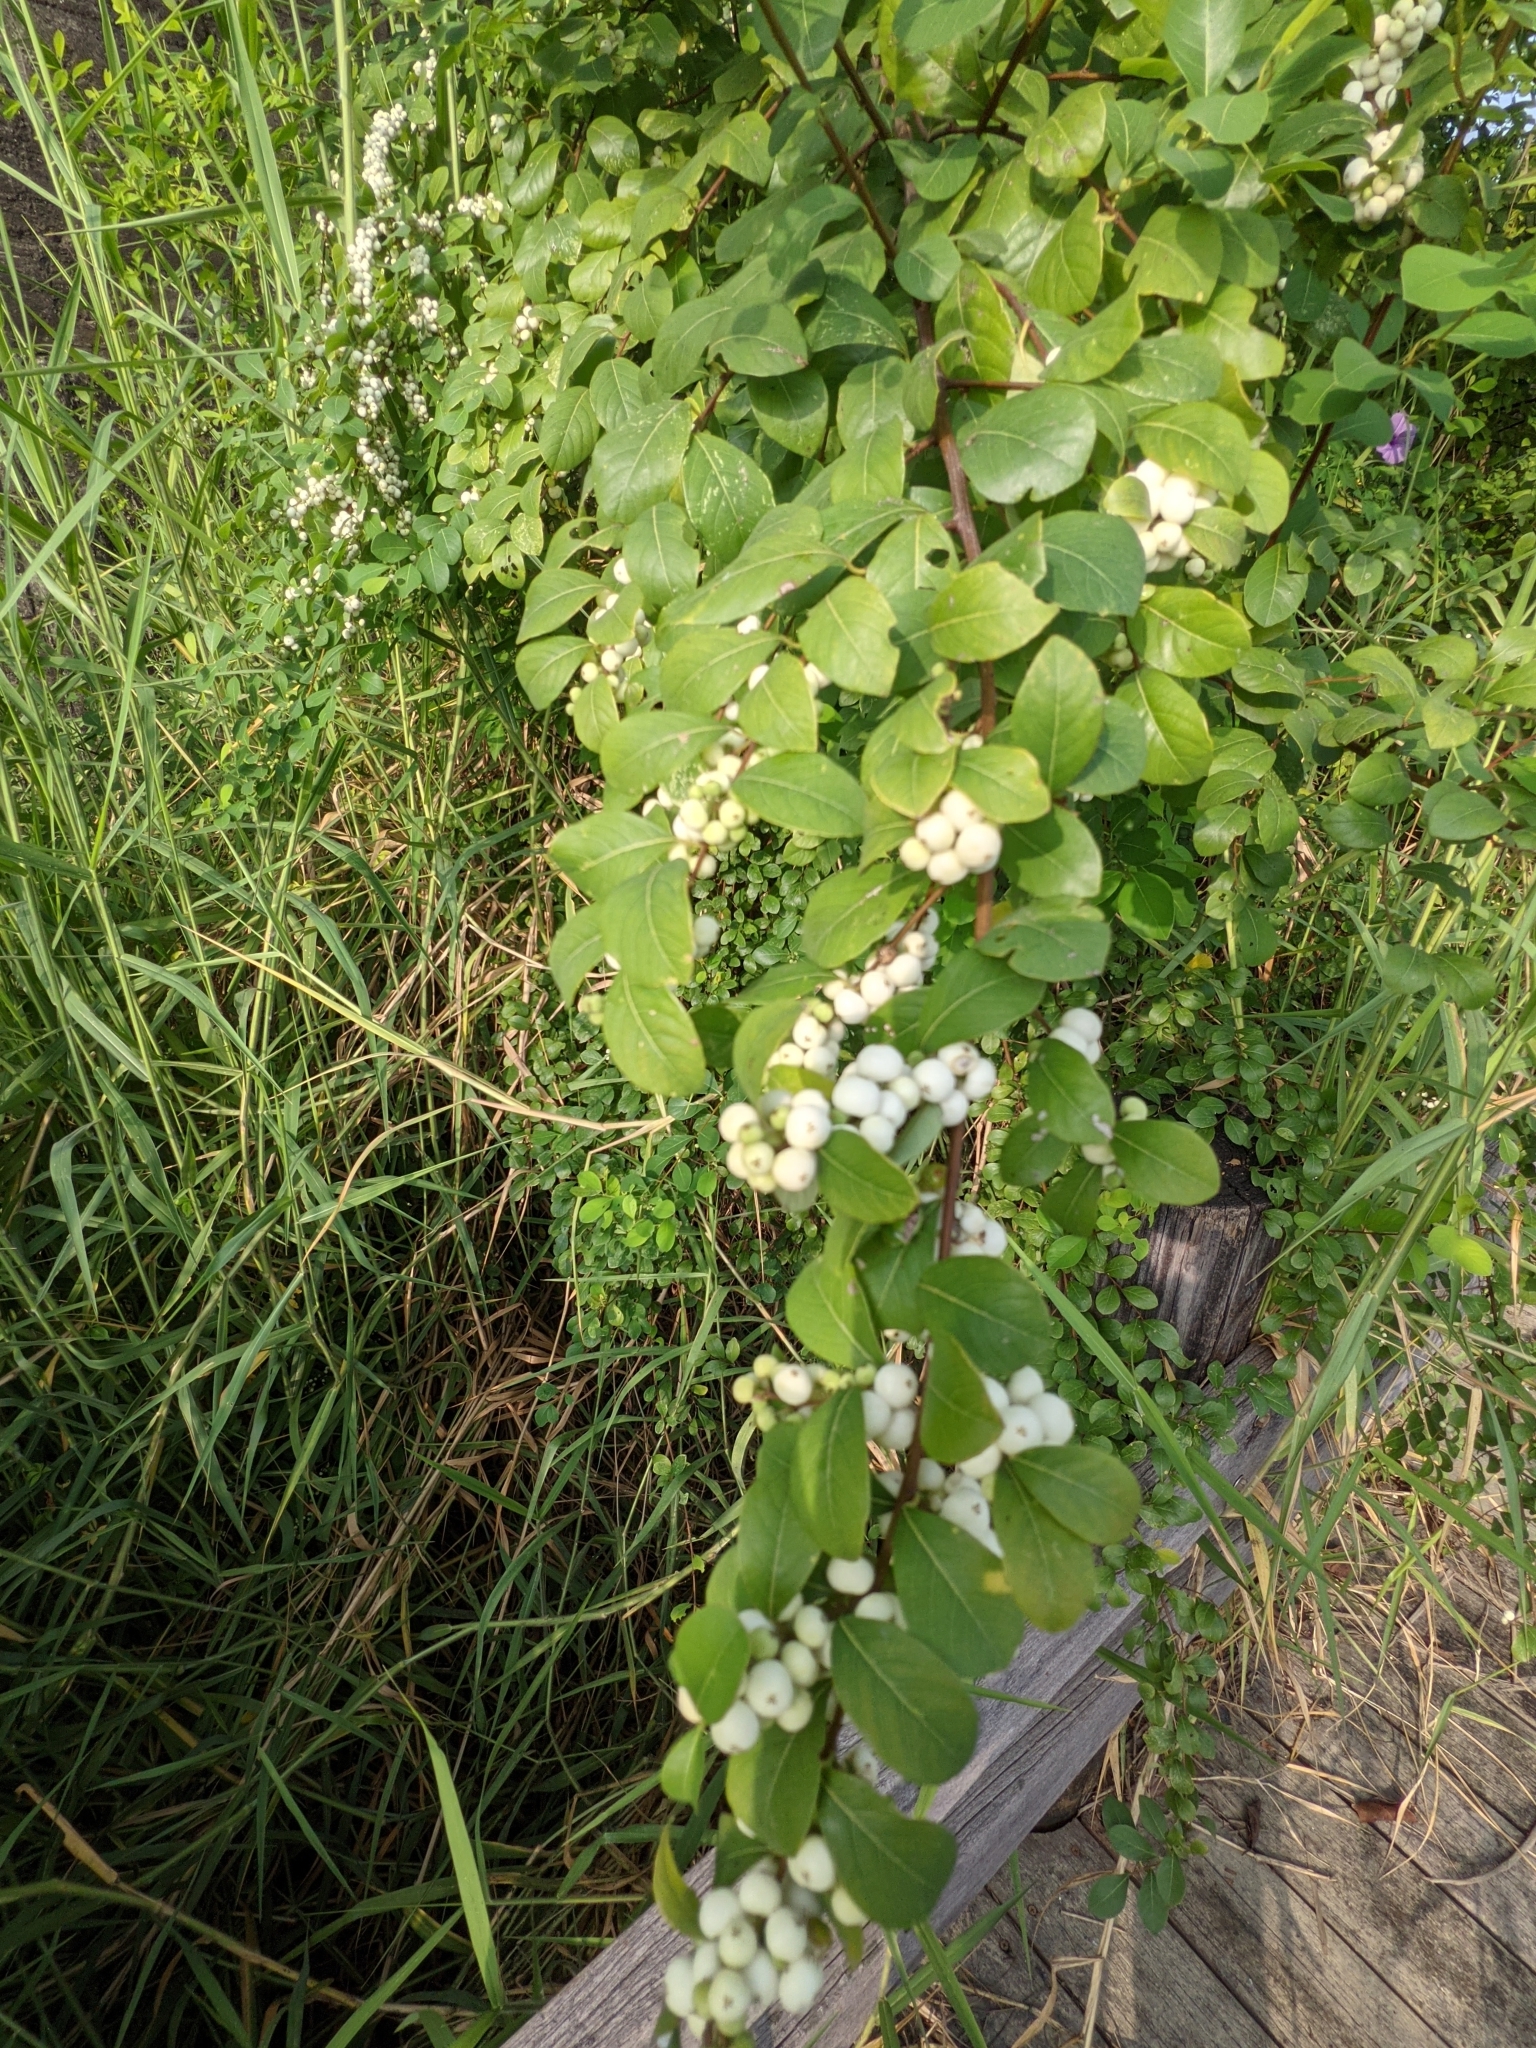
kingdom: Plantae
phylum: Tracheophyta
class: Magnoliopsida
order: Malpighiales
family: Phyllanthaceae
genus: Flueggea
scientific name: Flueggea virosa
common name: Common bushweed
